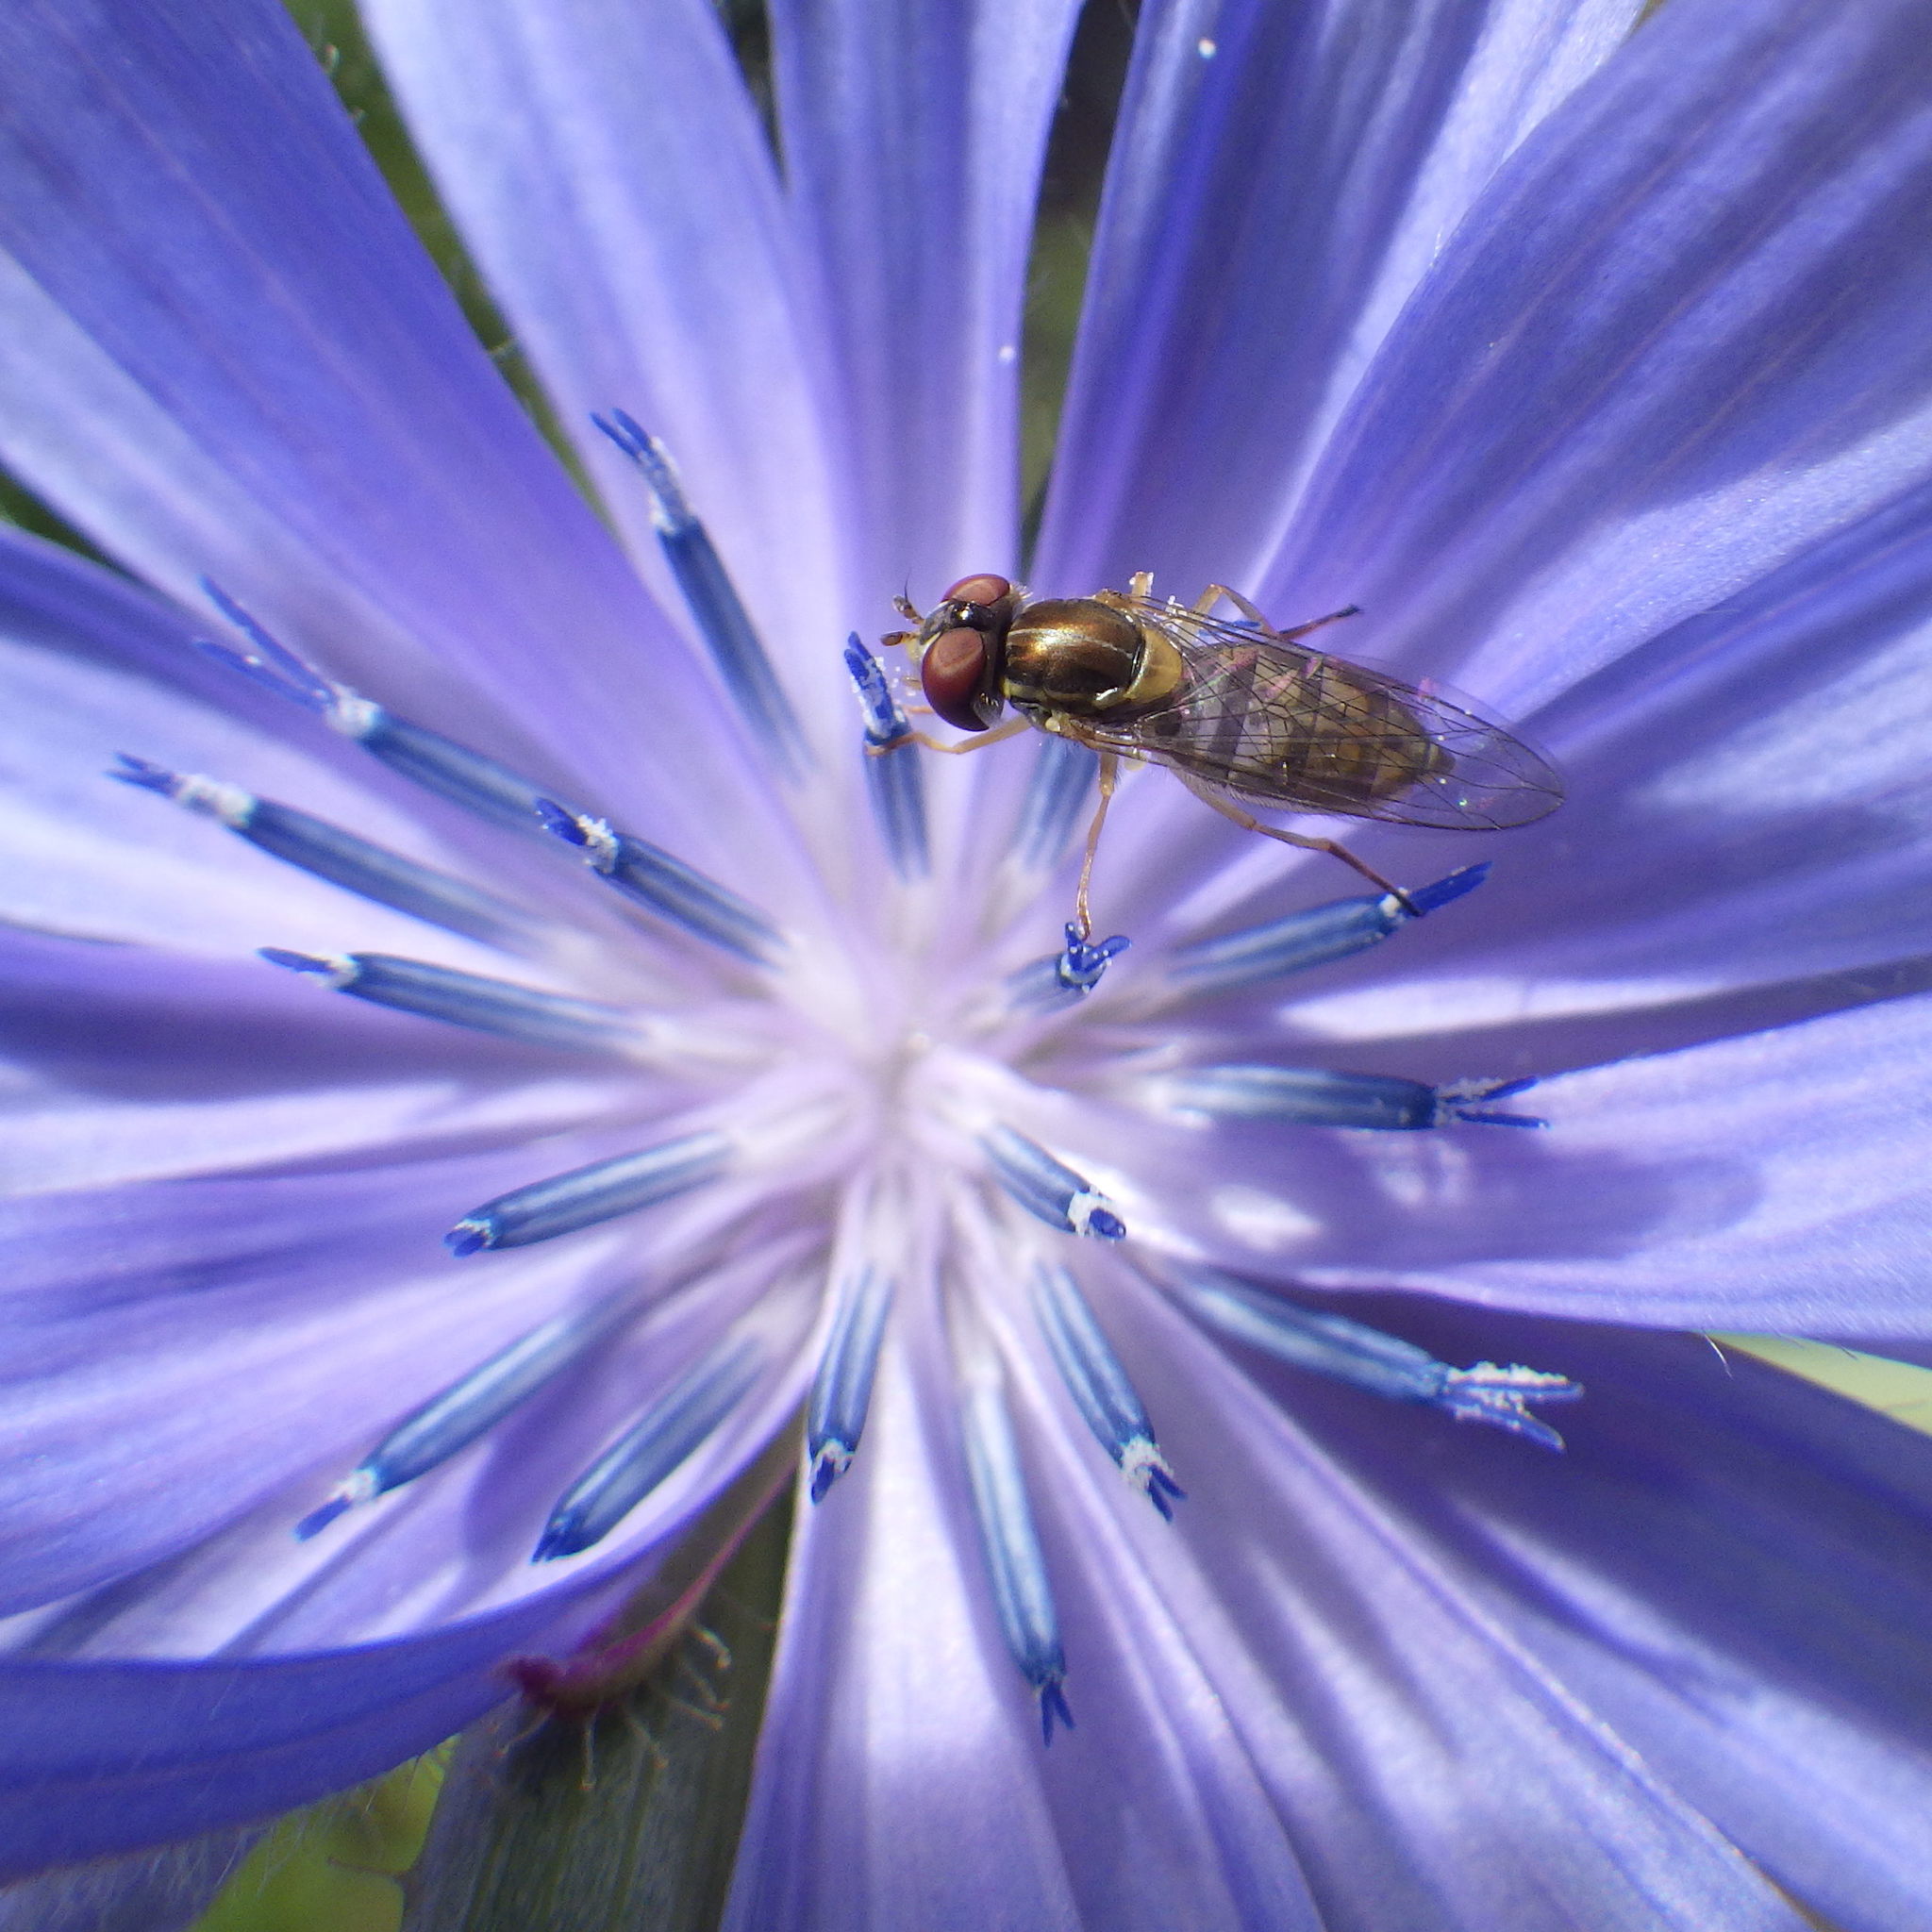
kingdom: Animalia
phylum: Arthropoda
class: Insecta
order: Diptera
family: Syrphidae
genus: Toxomerus
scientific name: Toxomerus marginatus
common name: Syrphid fly
